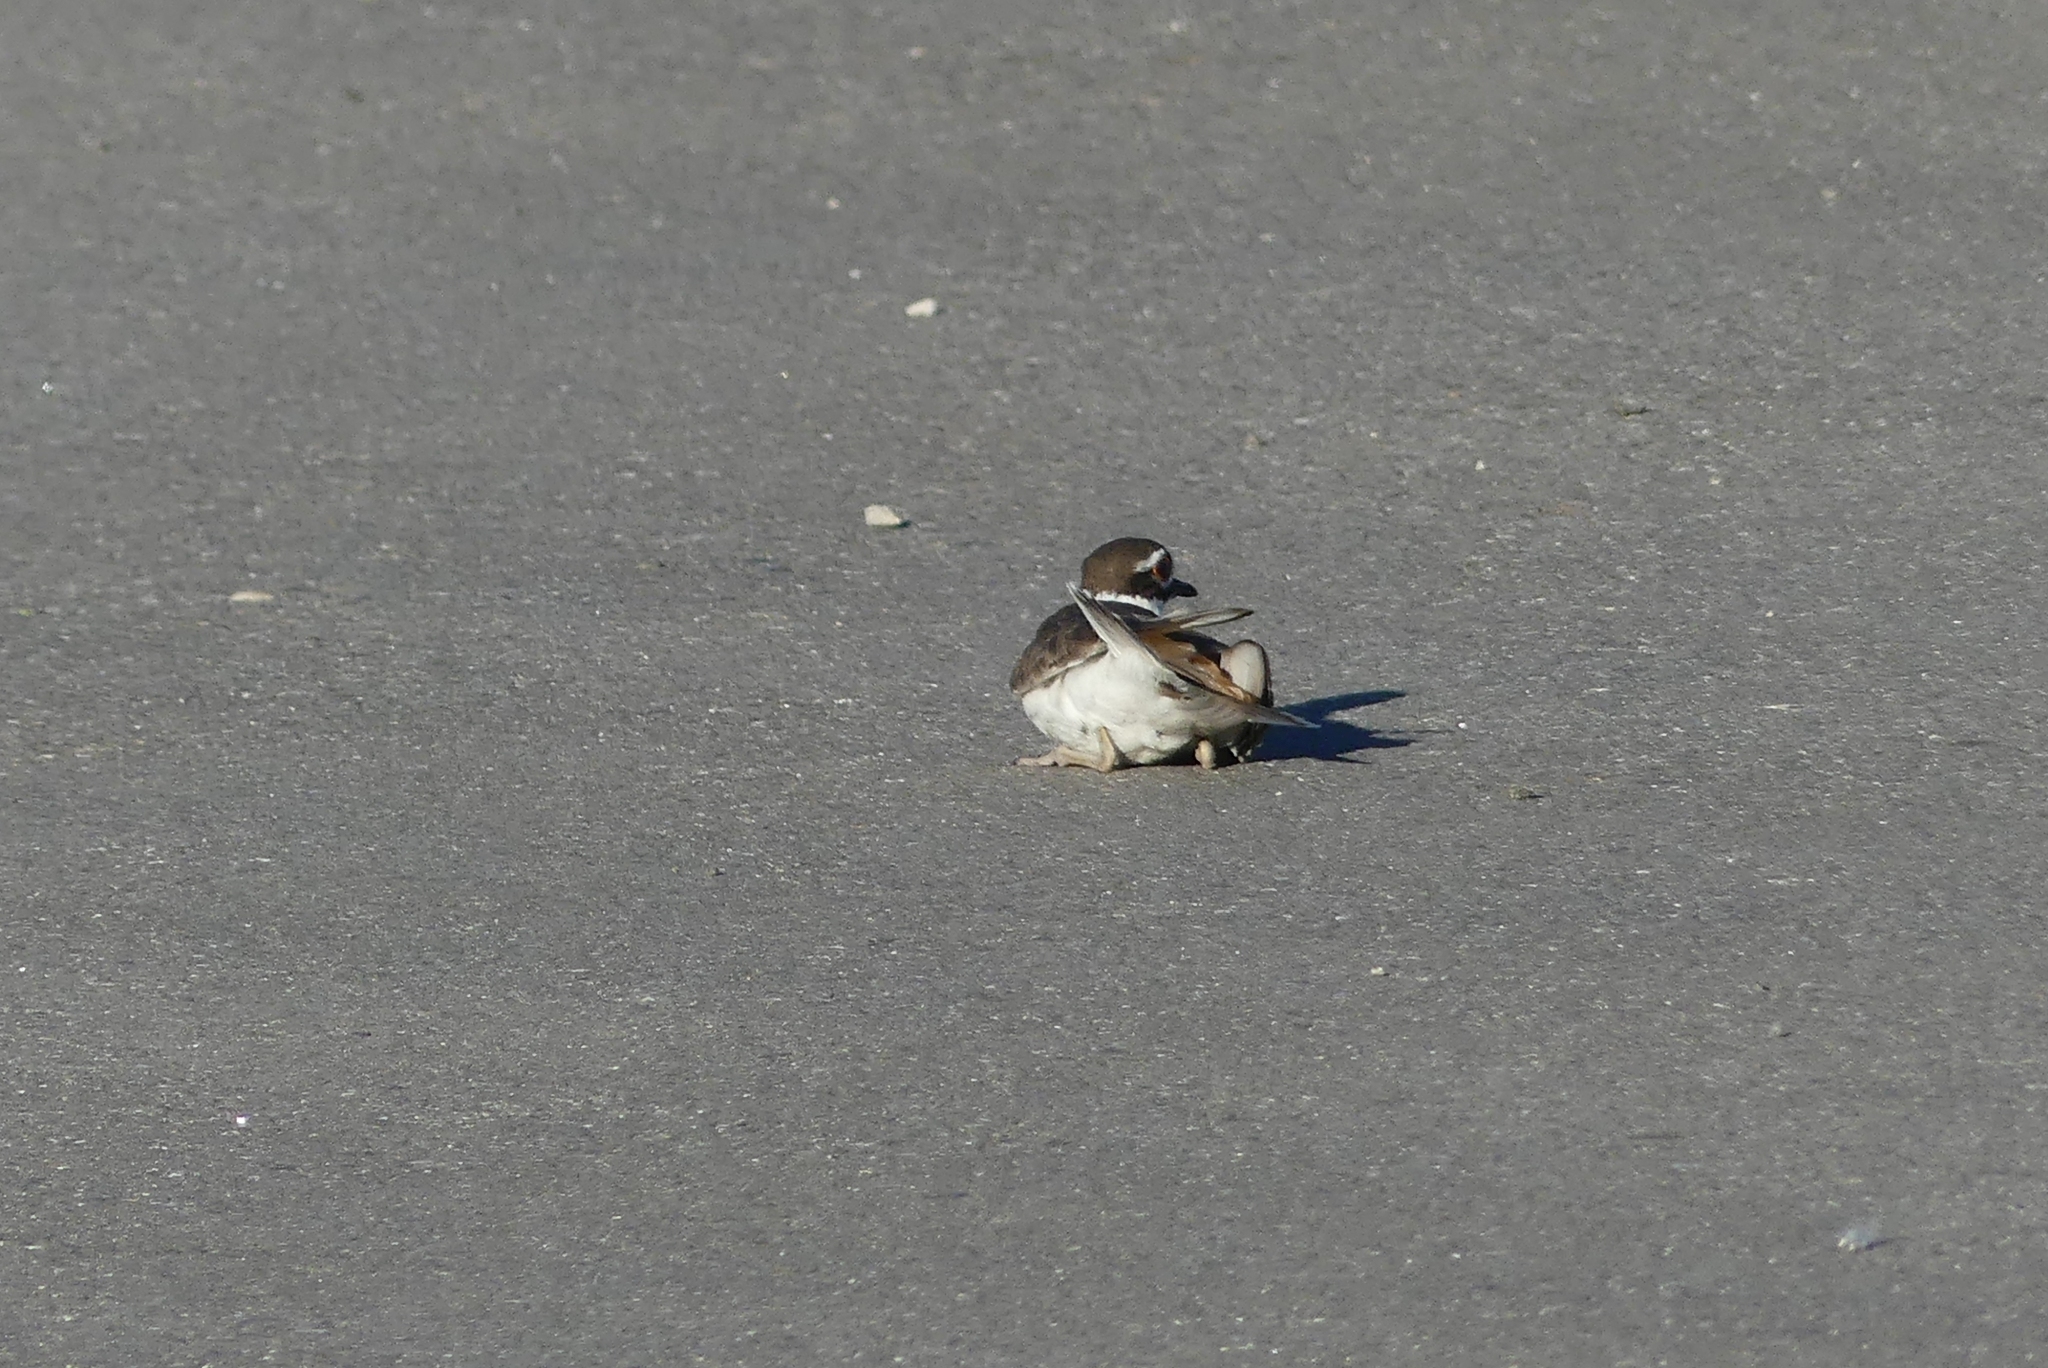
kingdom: Animalia
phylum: Chordata
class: Aves
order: Charadriiformes
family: Charadriidae
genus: Charadrius
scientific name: Charadrius vociferus
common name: Killdeer
